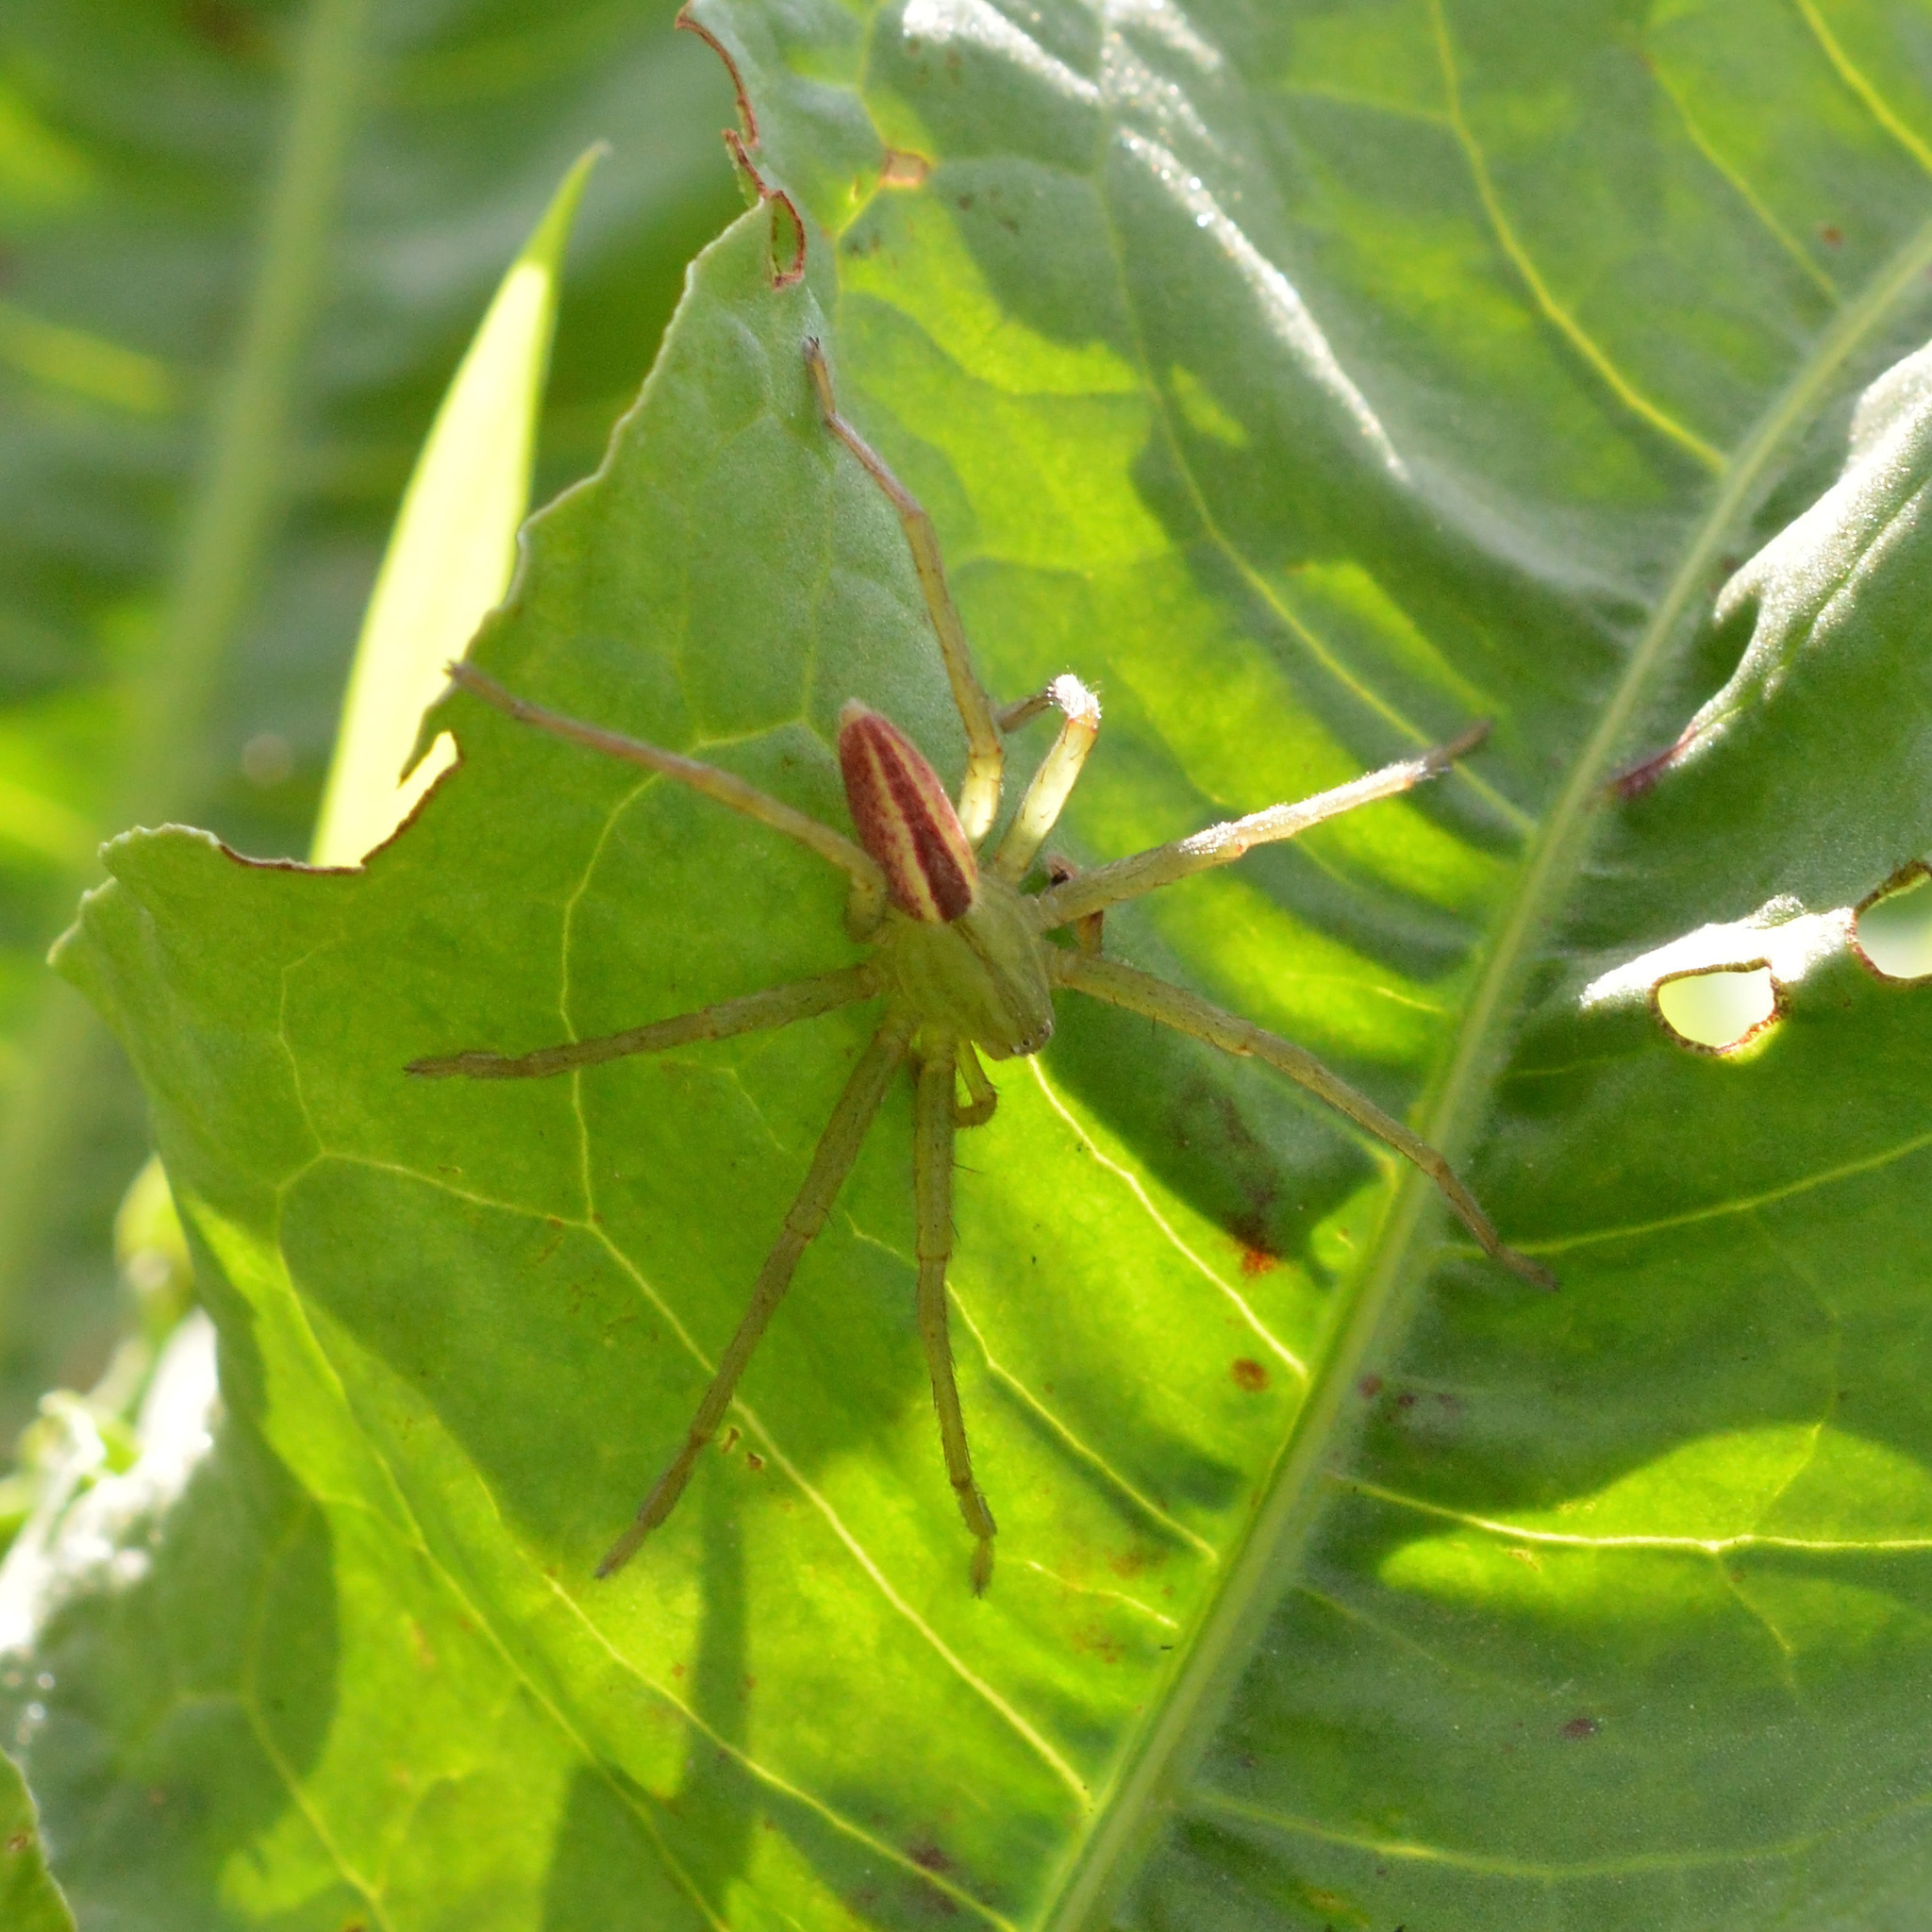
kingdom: Animalia
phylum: Arthropoda
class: Arachnida
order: Araneae
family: Sparassidae
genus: Micrommata
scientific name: Micrommata virescens
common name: Green spider
